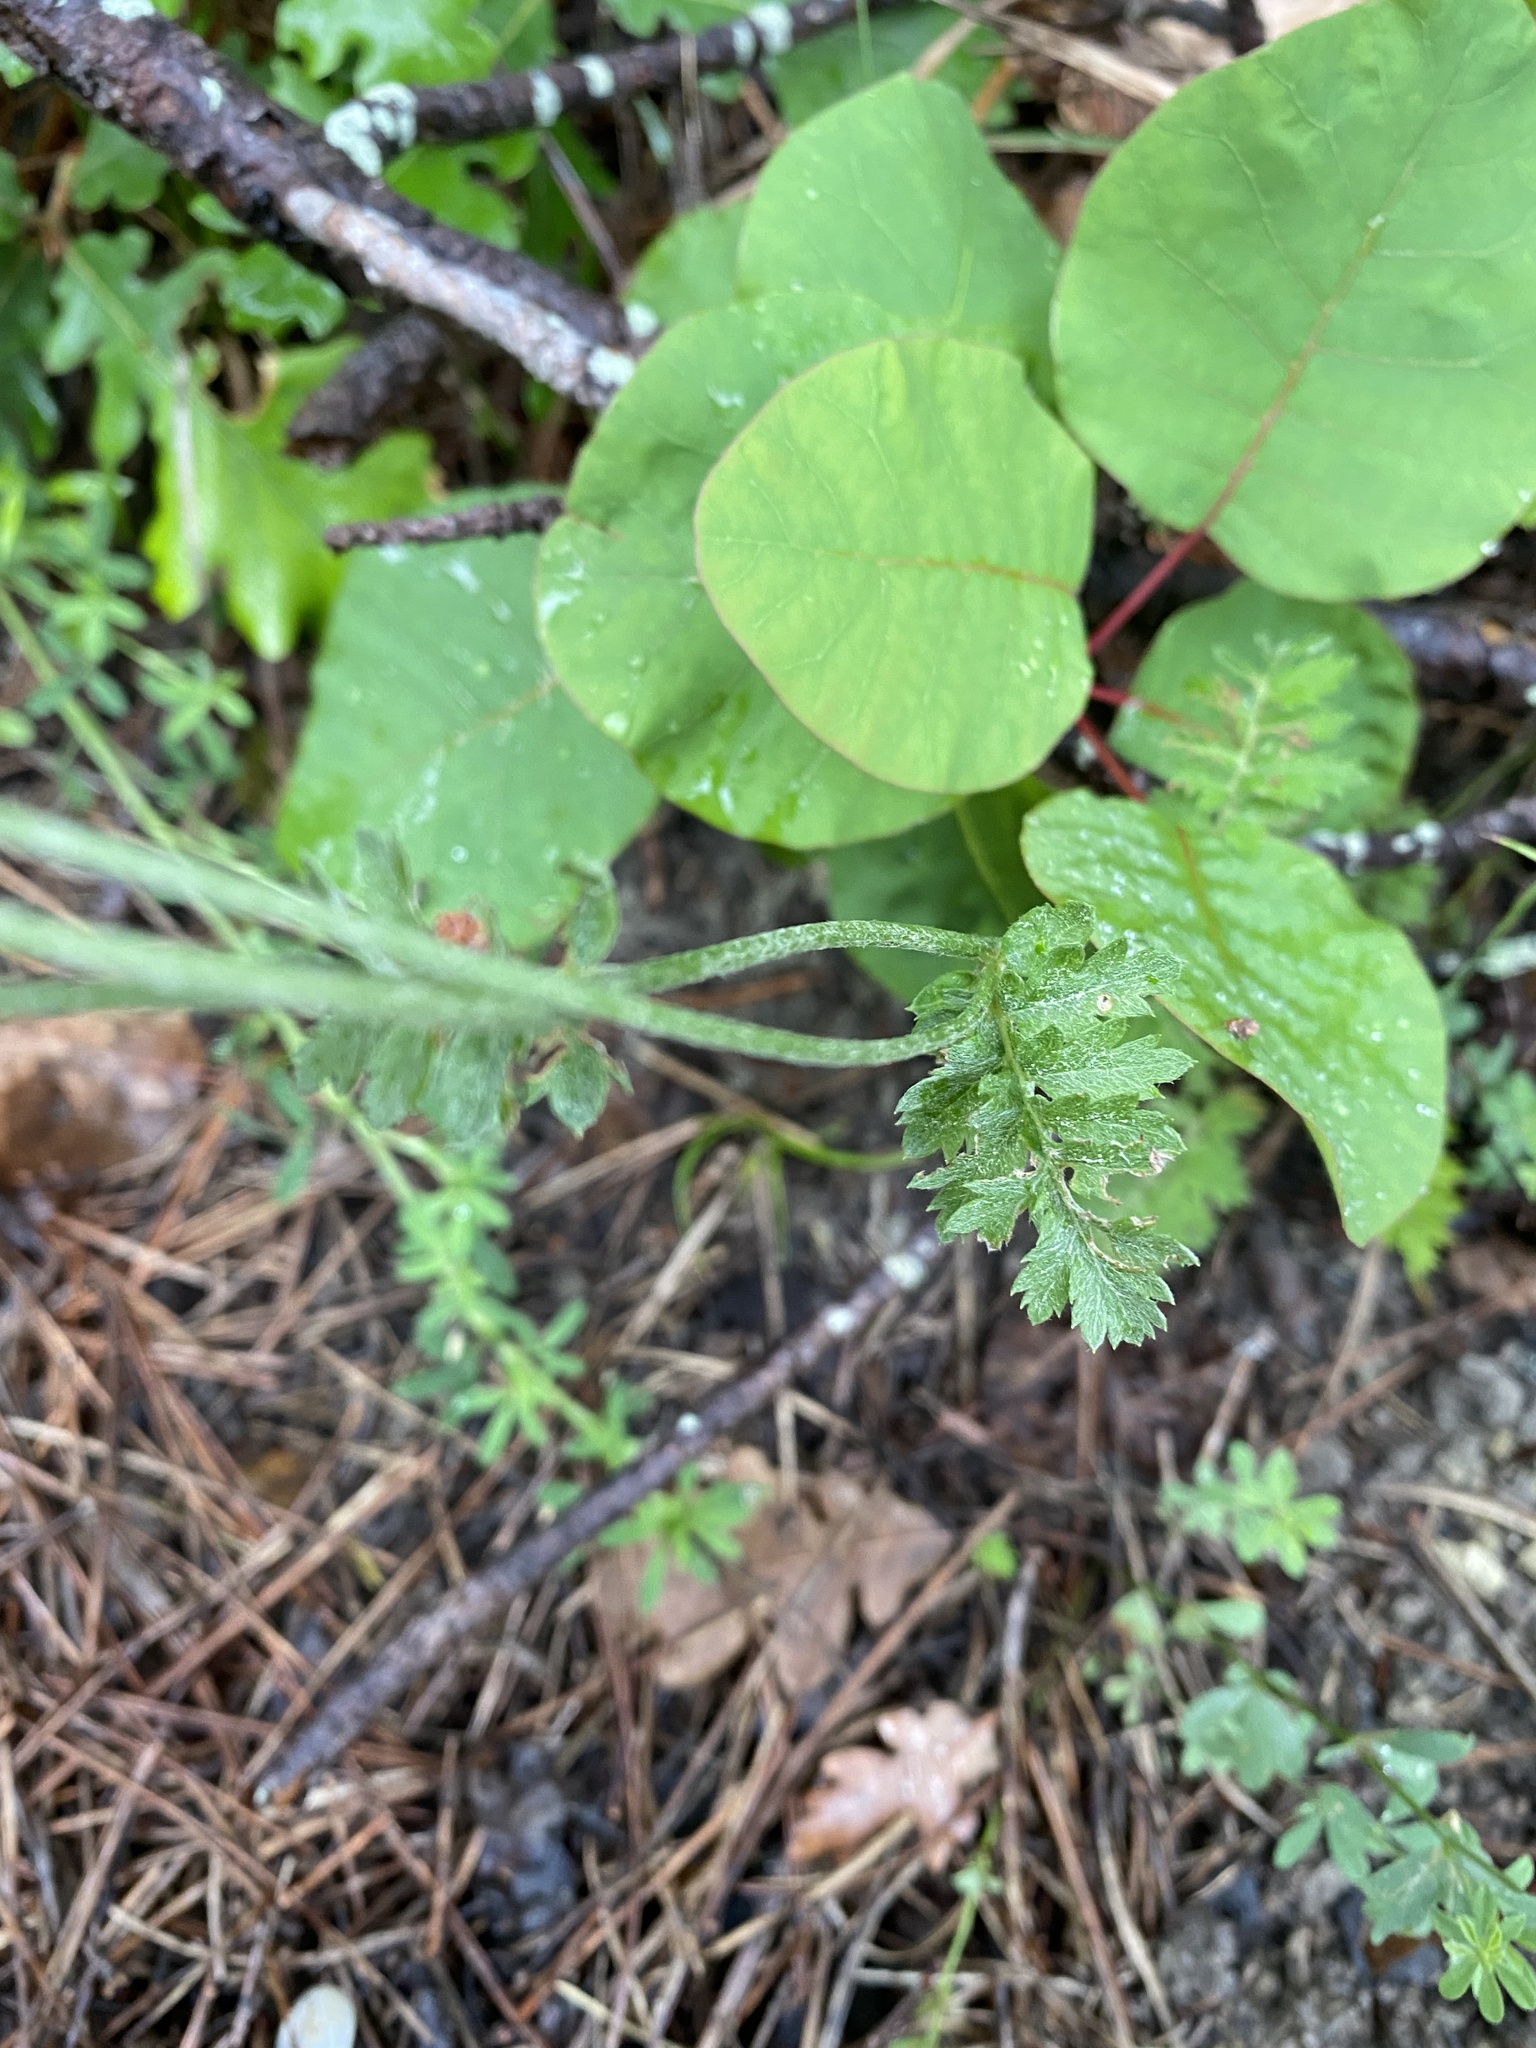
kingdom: Plantae
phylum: Tracheophyta
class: Magnoliopsida
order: Asterales
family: Asteraceae
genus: Tanacetum
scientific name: Tanacetum poteriifolium
